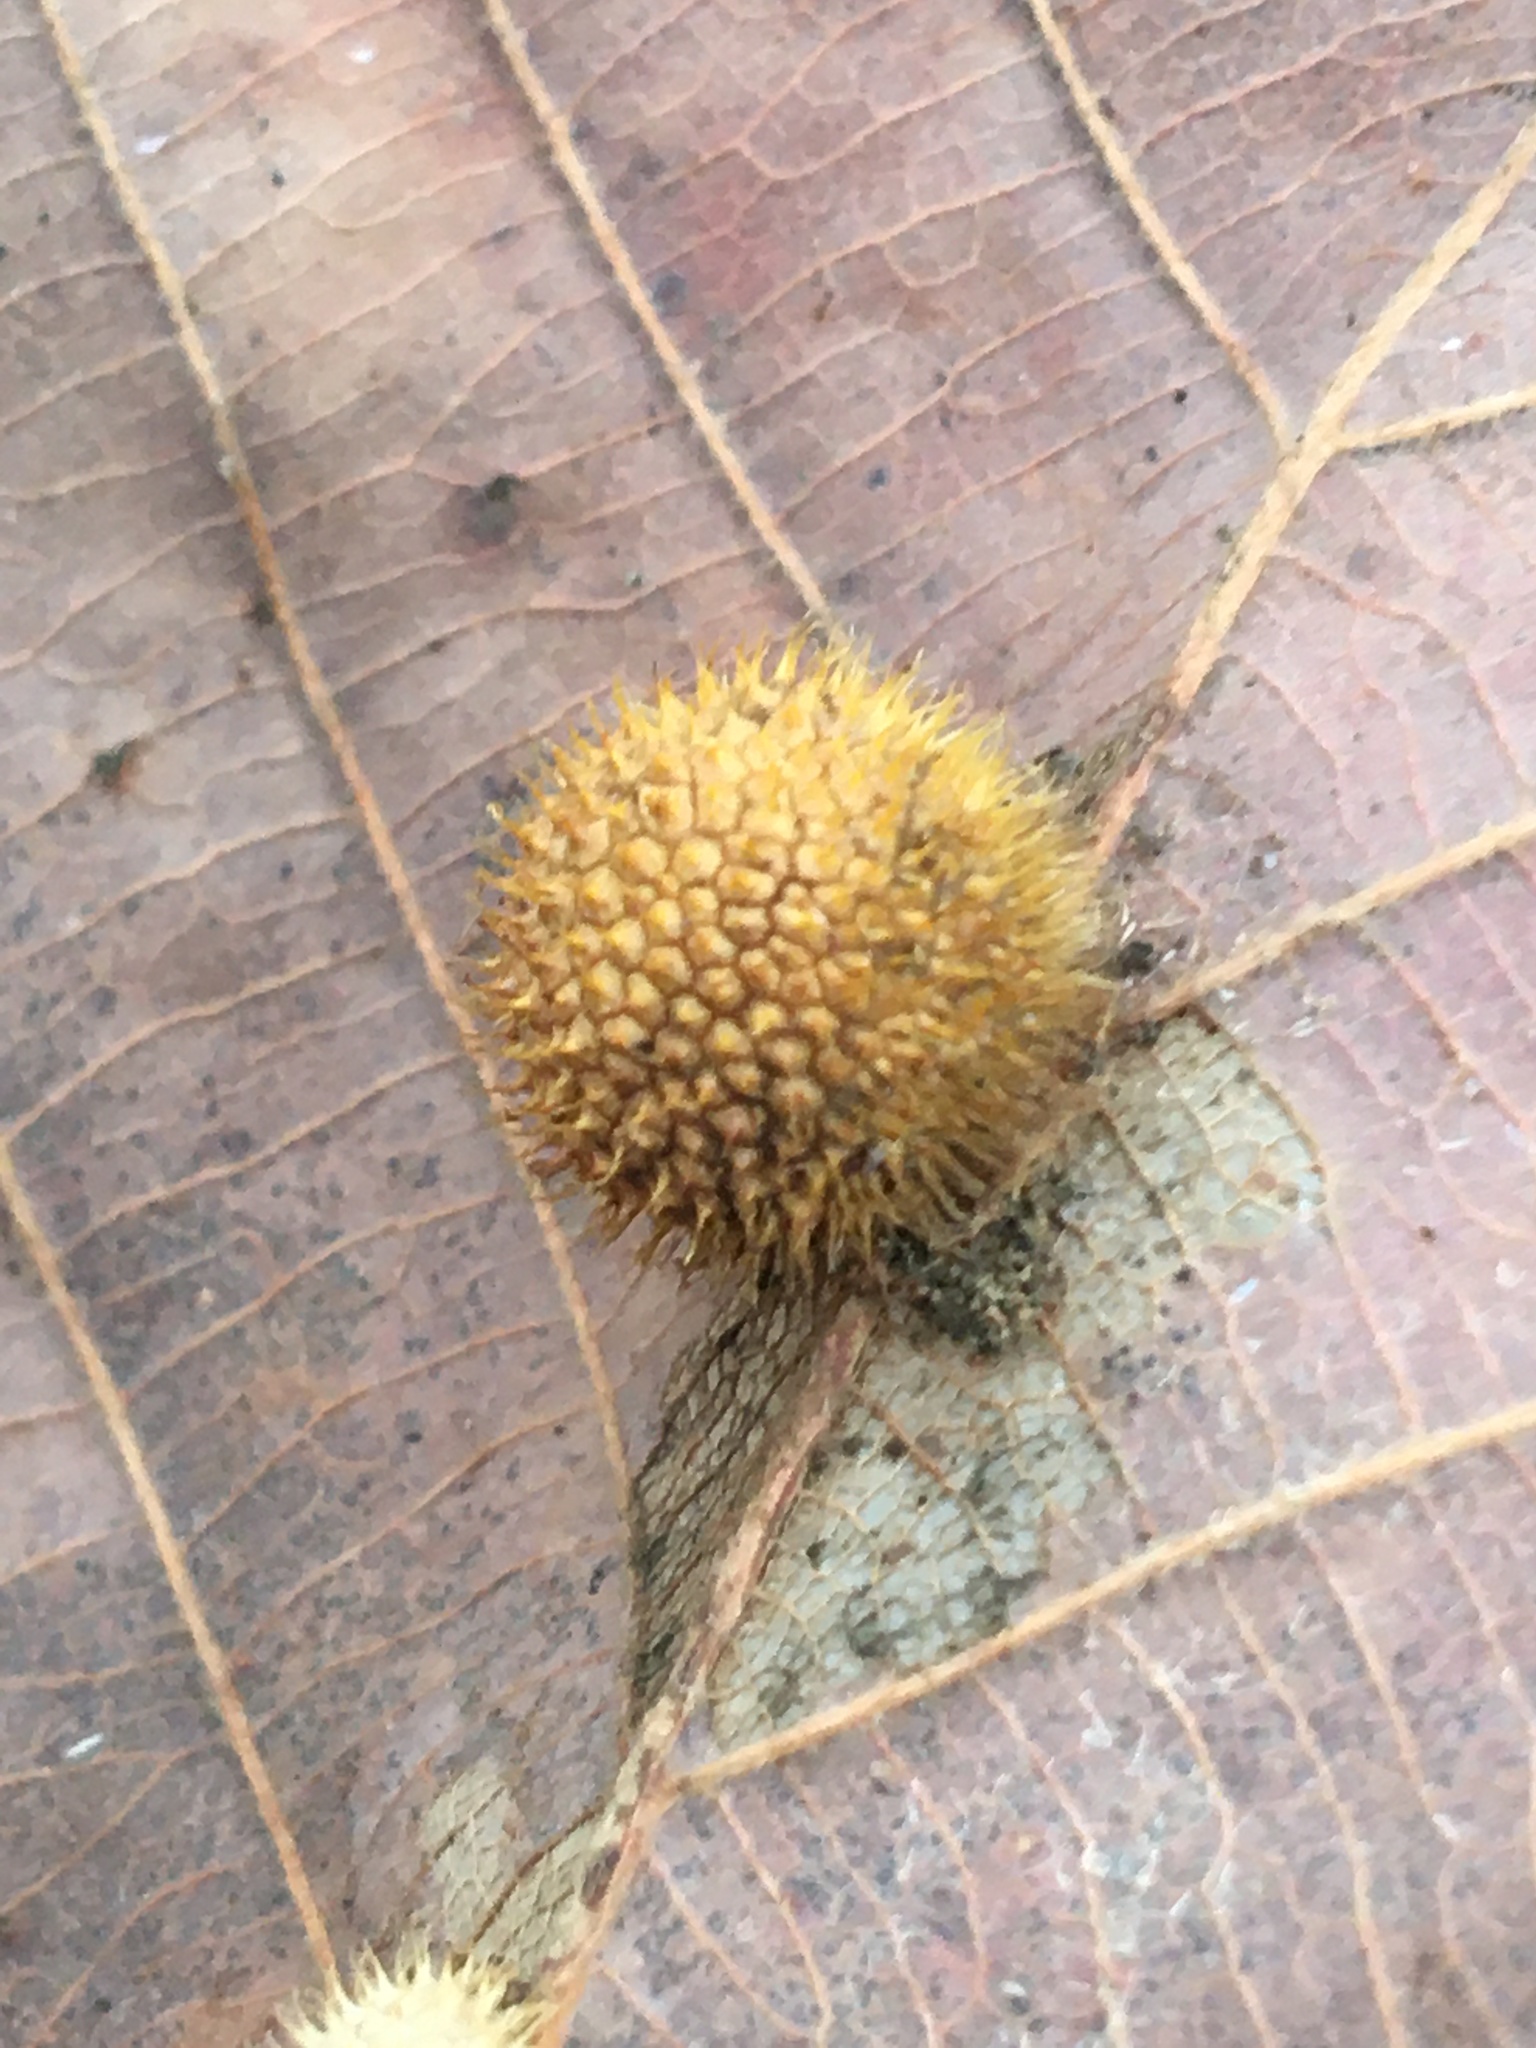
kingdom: Animalia
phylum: Arthropoda
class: Insecta
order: Hymenoptera
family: Cynipidae
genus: Acraspis
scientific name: Acraspis villosa
